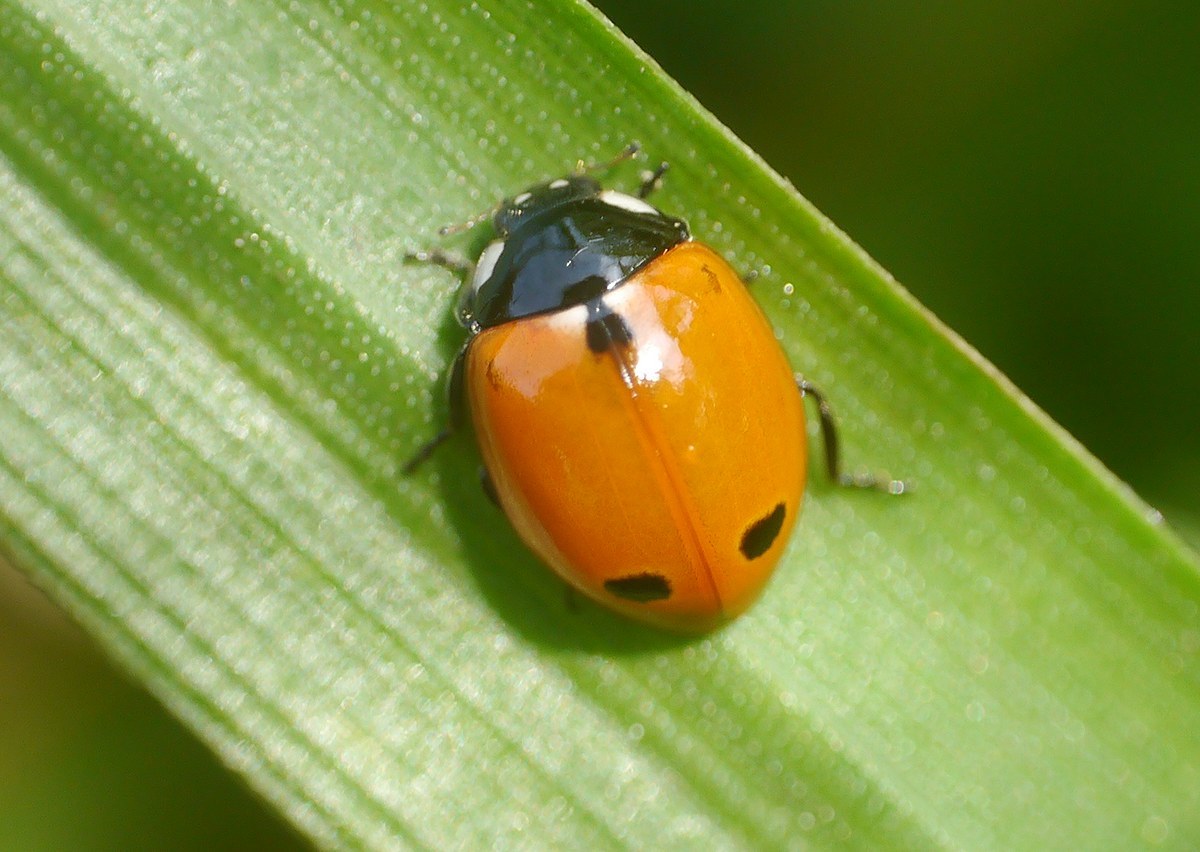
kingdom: Animalia
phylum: Arthropoda
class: Insecta
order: Coleoptera
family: Coccinellidae
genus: Coccinella
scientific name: Coccinella undecimpunctata
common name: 11-spot ladybird
